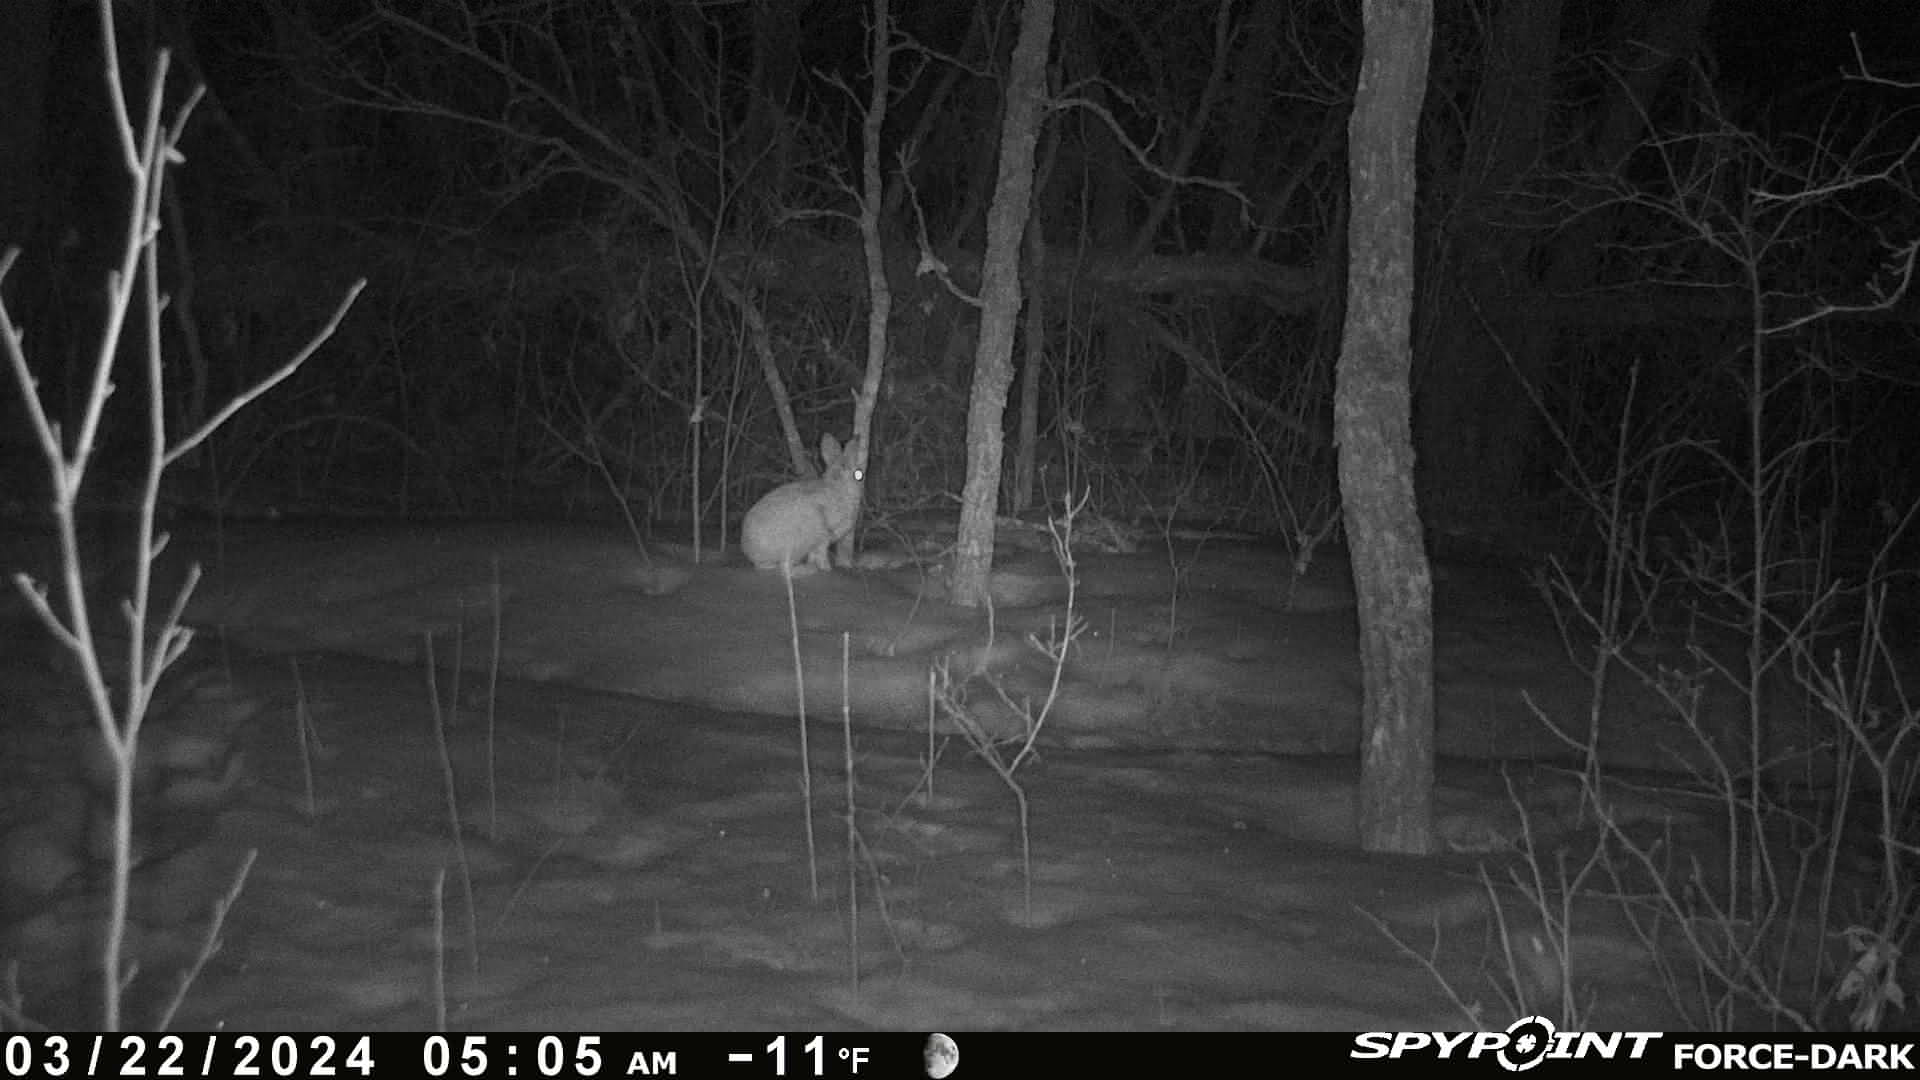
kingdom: Animalia
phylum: Chordata
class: Mammalia
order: Lagomorpha
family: Leporidae
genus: Lepus
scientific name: Lepus americanus
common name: Snowshoe hare
